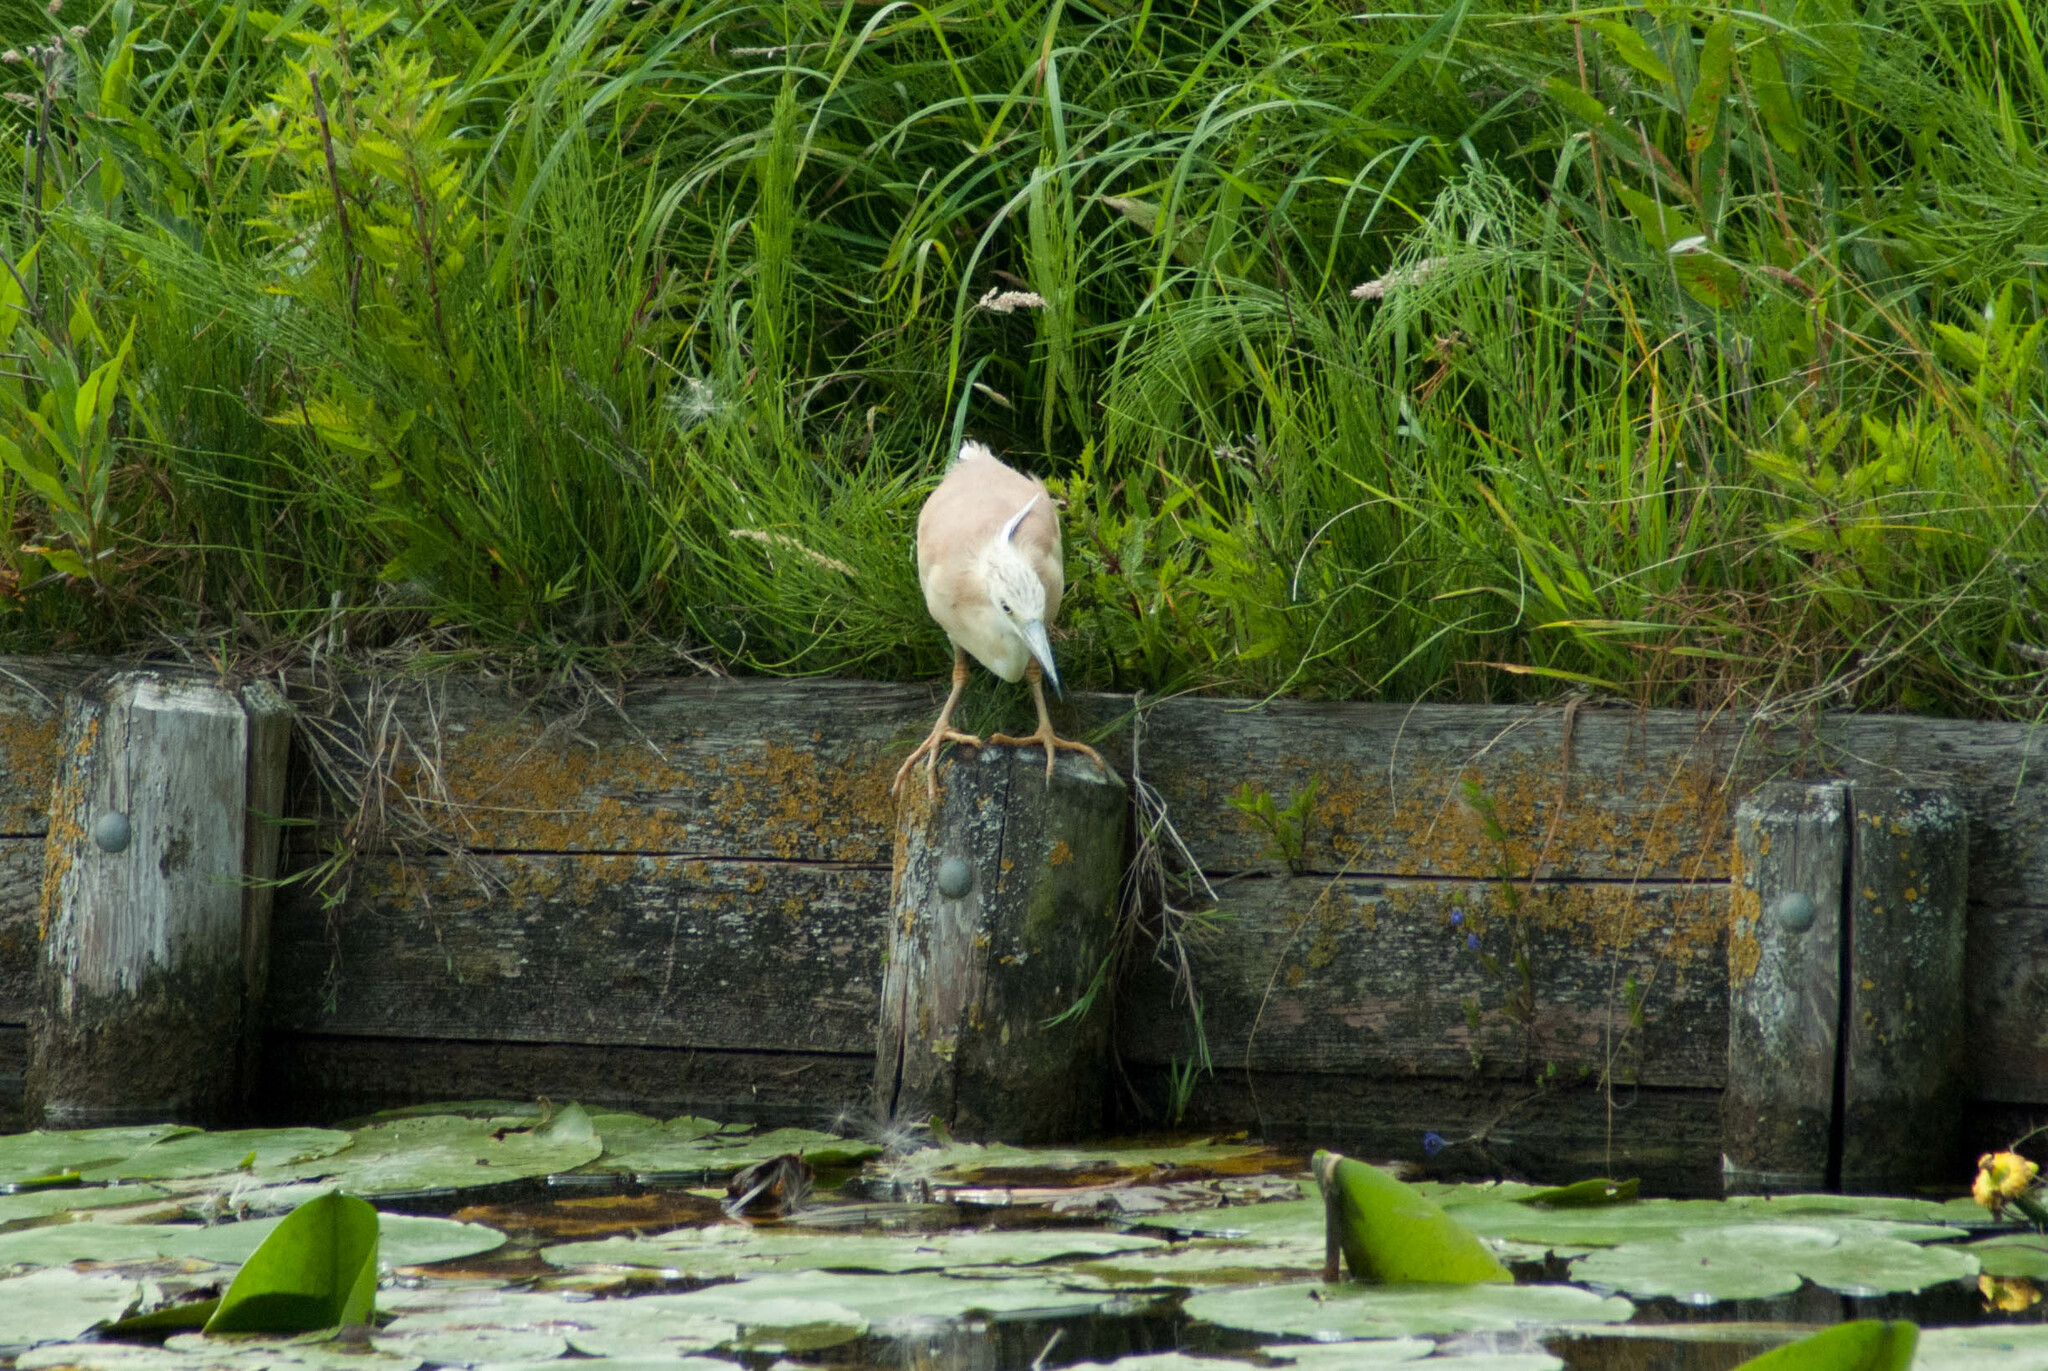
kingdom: Animalia
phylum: Chordata
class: Aves
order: Pelecaniformes
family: Ardeidae
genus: Ardeola
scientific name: Ardeola ralloides
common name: Squacco heron
